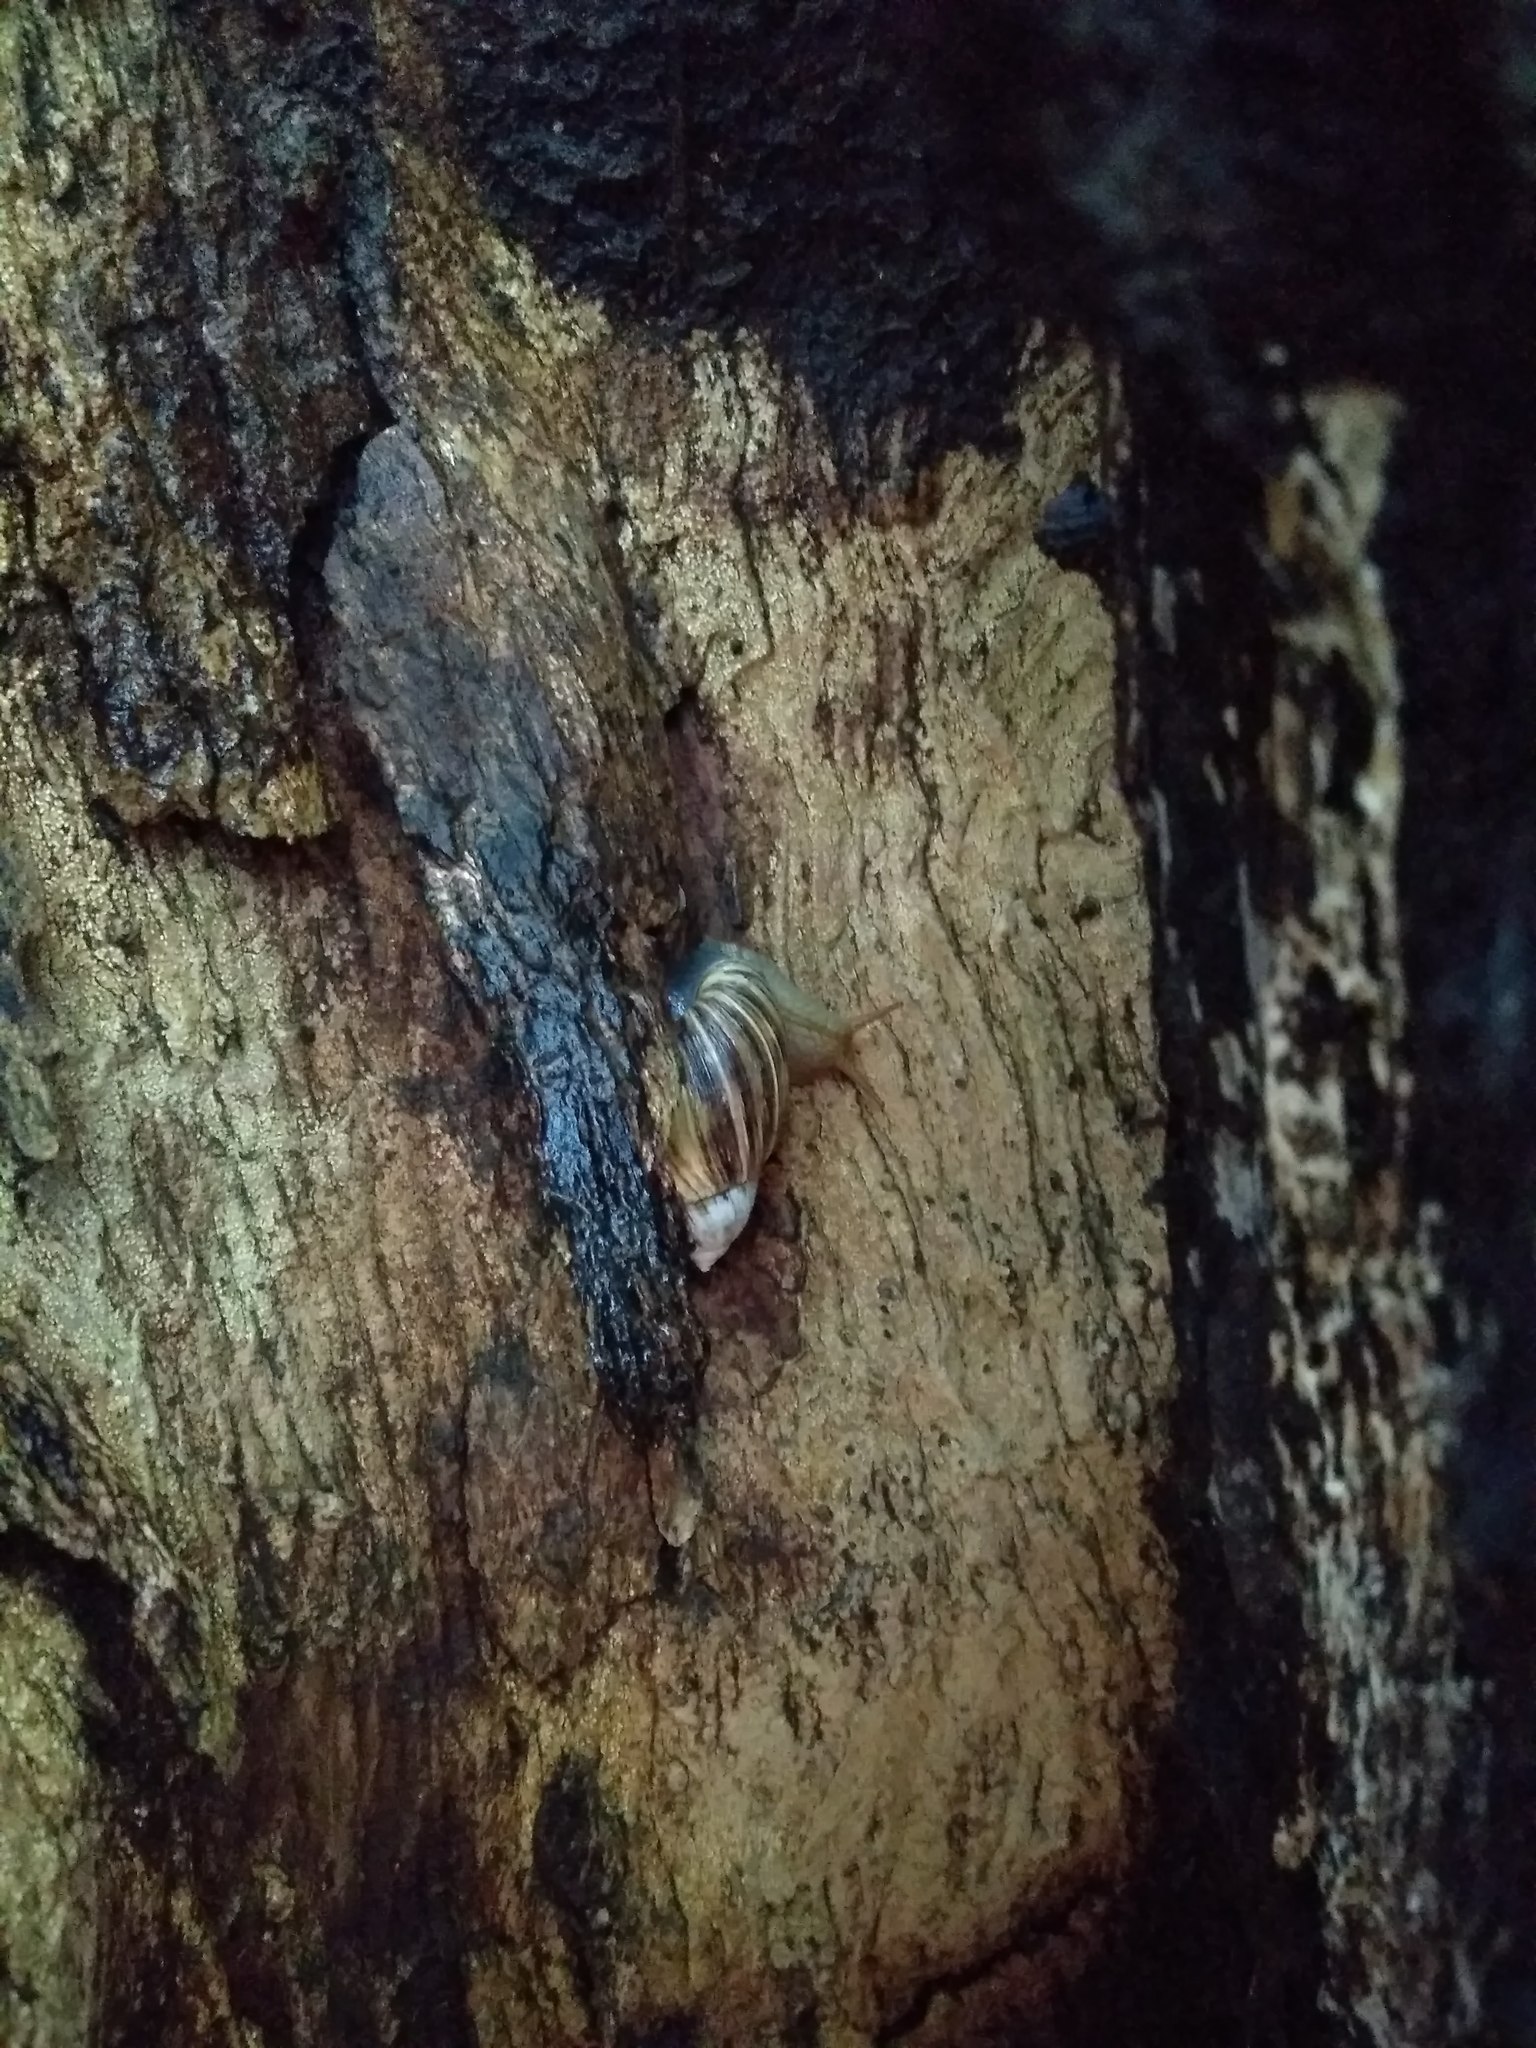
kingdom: Animalia
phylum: Mollusca
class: Gastropoda
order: Stylommatophora
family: Bothriembryontidae
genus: Plectostylus
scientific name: Plectostylus araucanus
